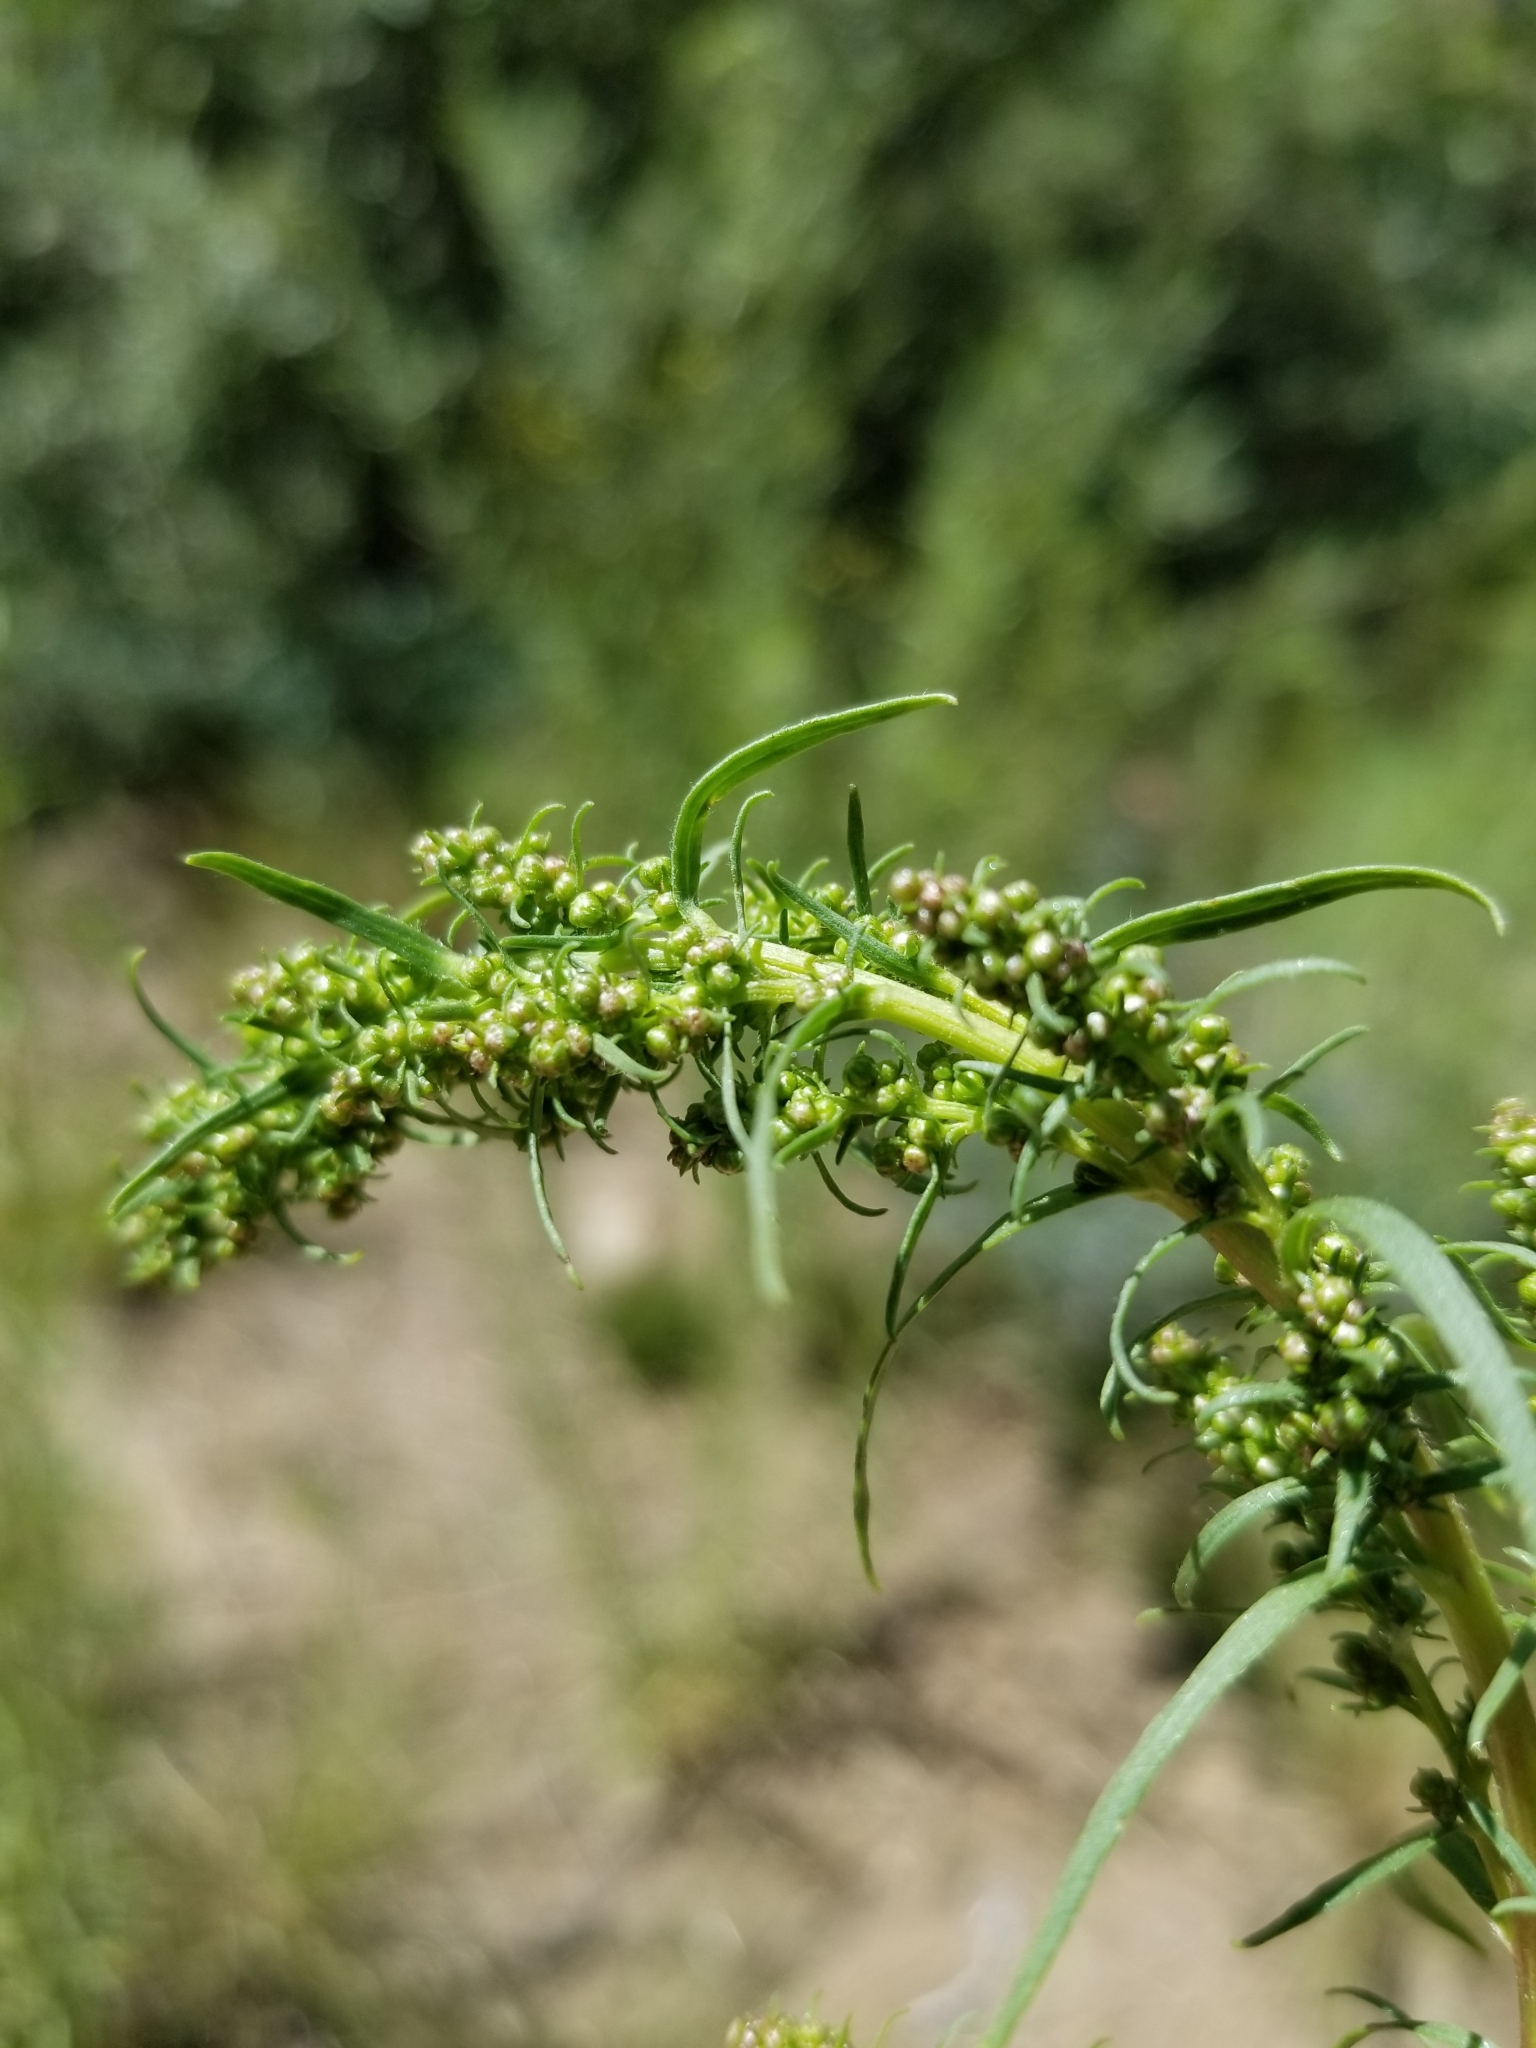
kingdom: Plantae
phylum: Tracheophyta
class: Magnoliopsida
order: Asterales
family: Asteraceae
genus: Artemisia
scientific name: Artemisia dracunculus
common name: Tarragon
